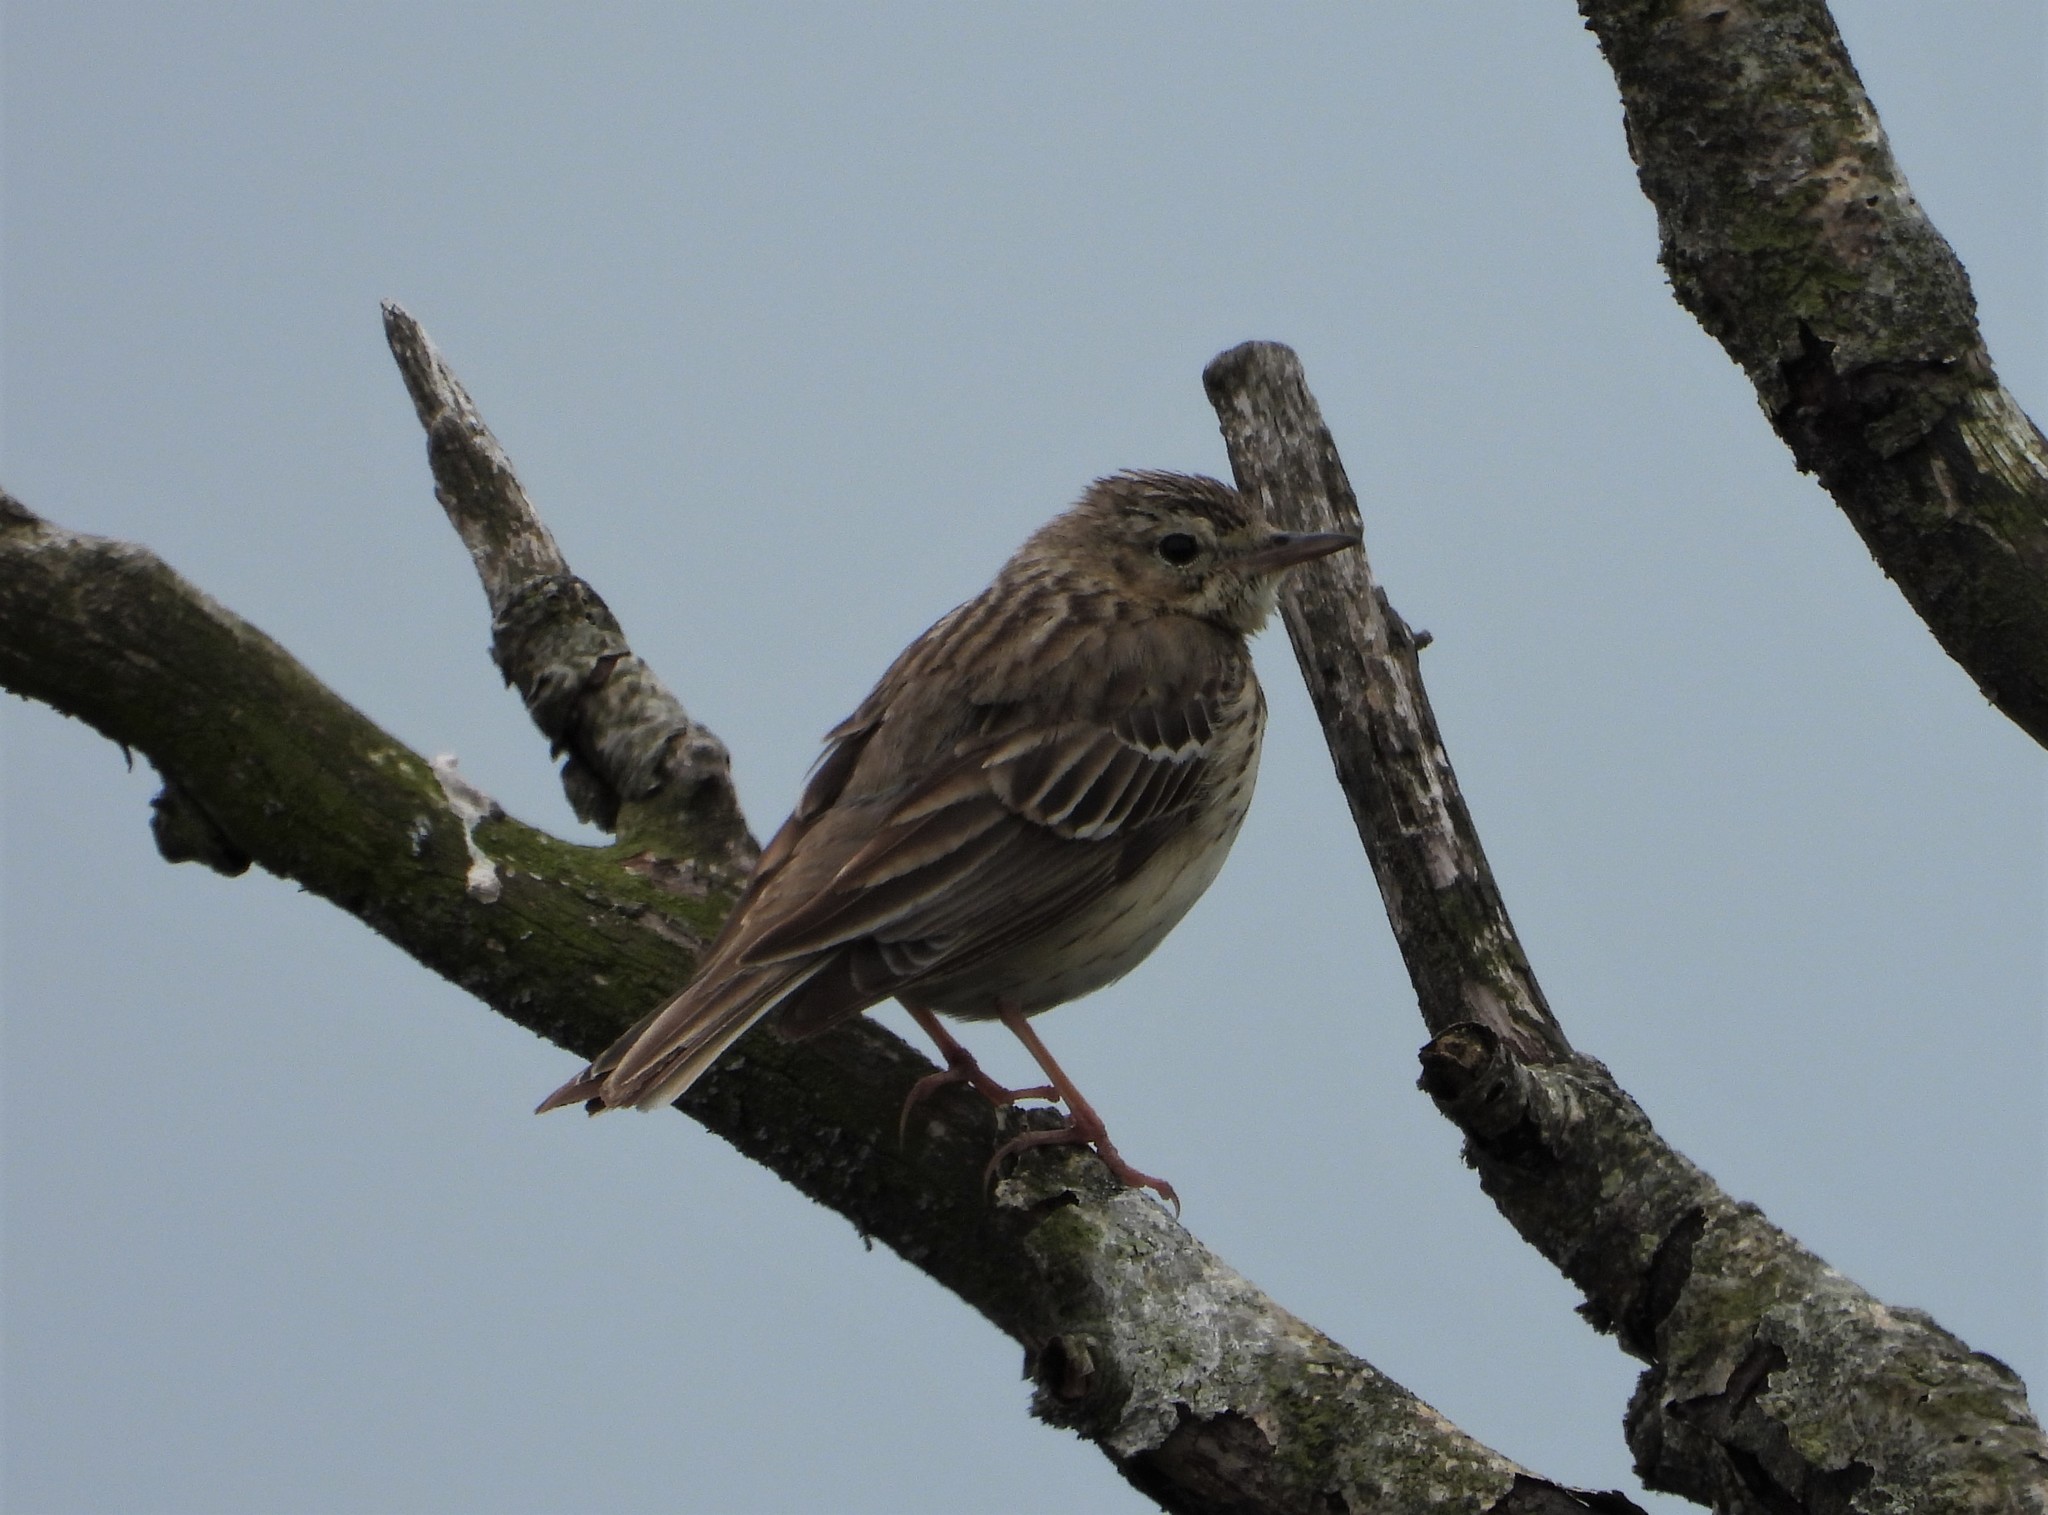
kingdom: Animalia
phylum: Chordata
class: Aves
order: Passeriformes
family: Motacillidae
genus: Anthus
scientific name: Anthus trivialis
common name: Tree pipit
